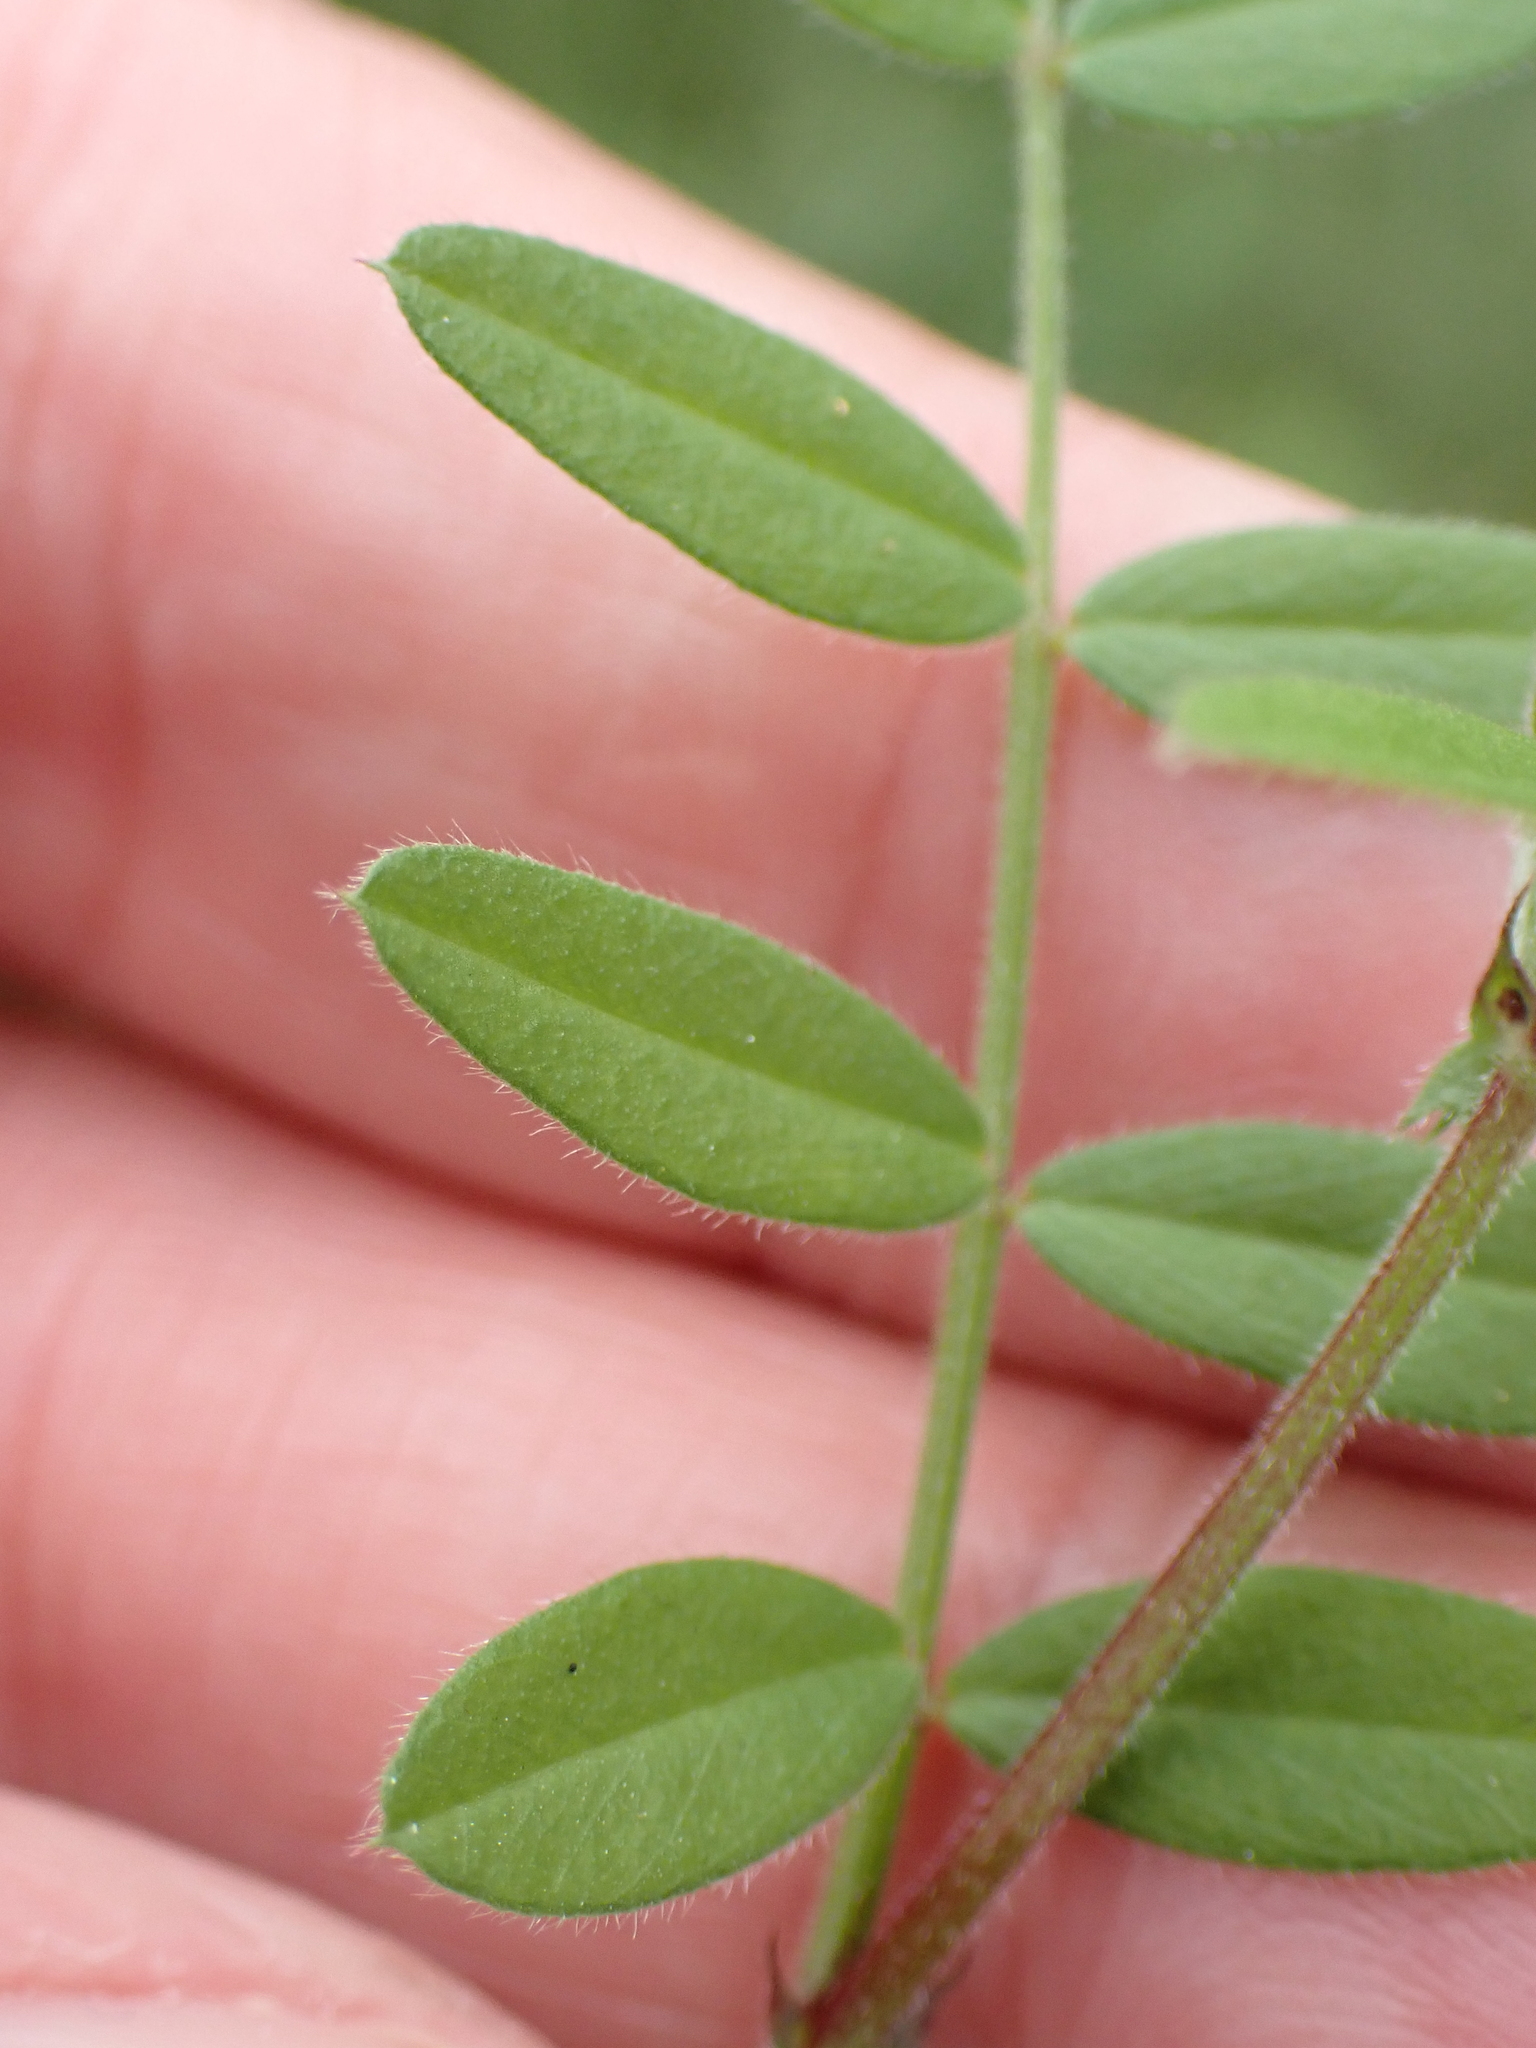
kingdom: Plantae
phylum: Tracheophyta
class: Magnoliopsida
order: Fabales
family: Fabaceae
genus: Vicia
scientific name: Vicia sativa
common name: Garden vetch
